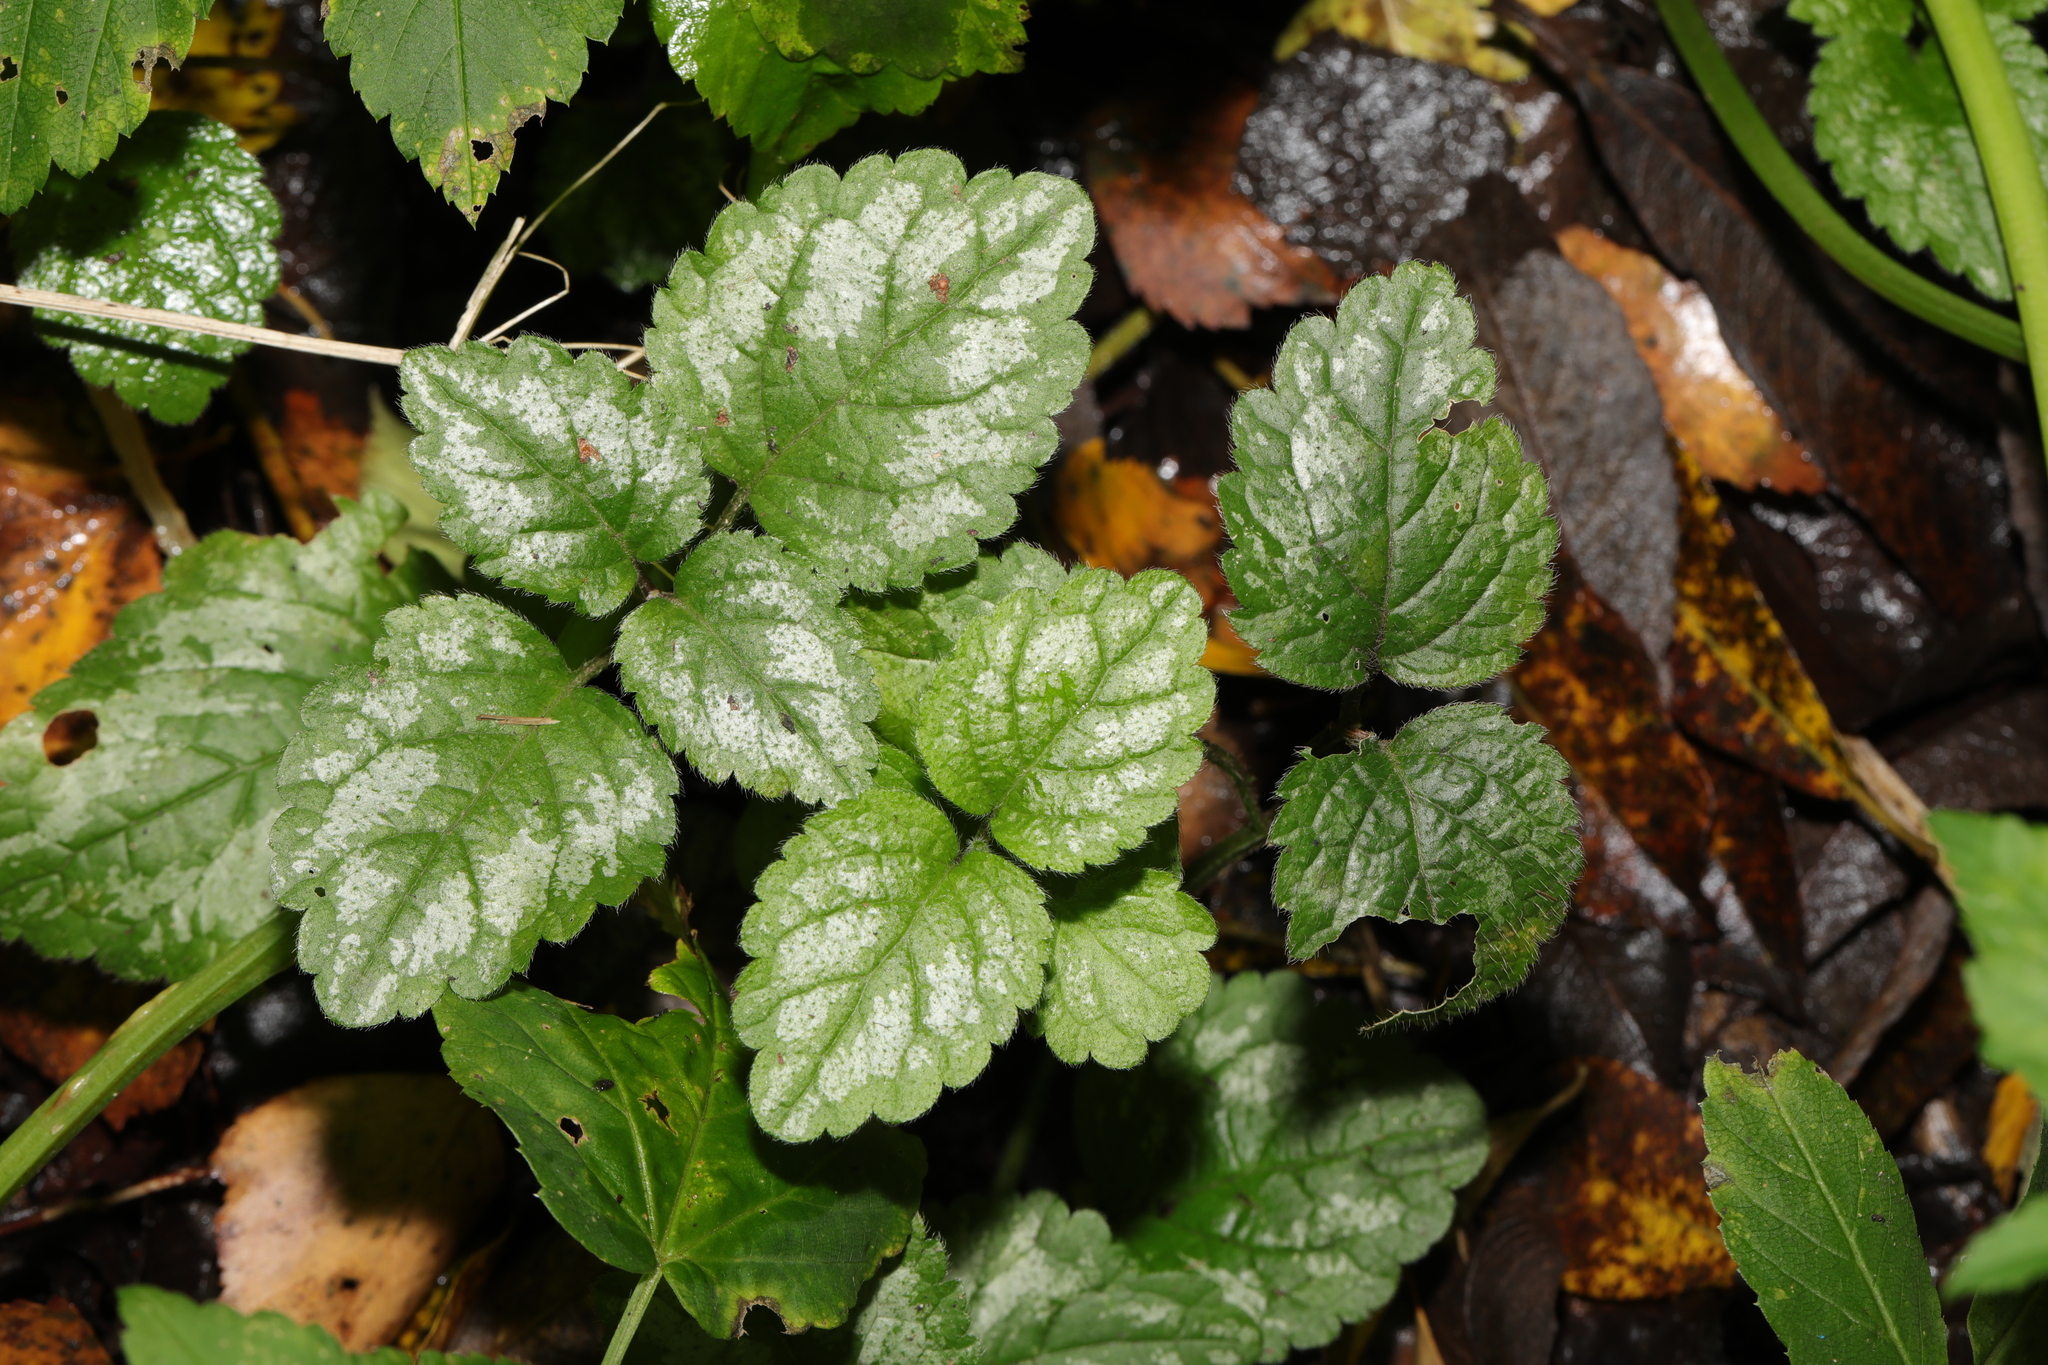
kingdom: Plantae
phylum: Tracheophyta
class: Magnoliopsida
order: Lamiales
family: Lamiaceae
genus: Lamium
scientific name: Lamium galeobdolon
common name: Yellow archangel
